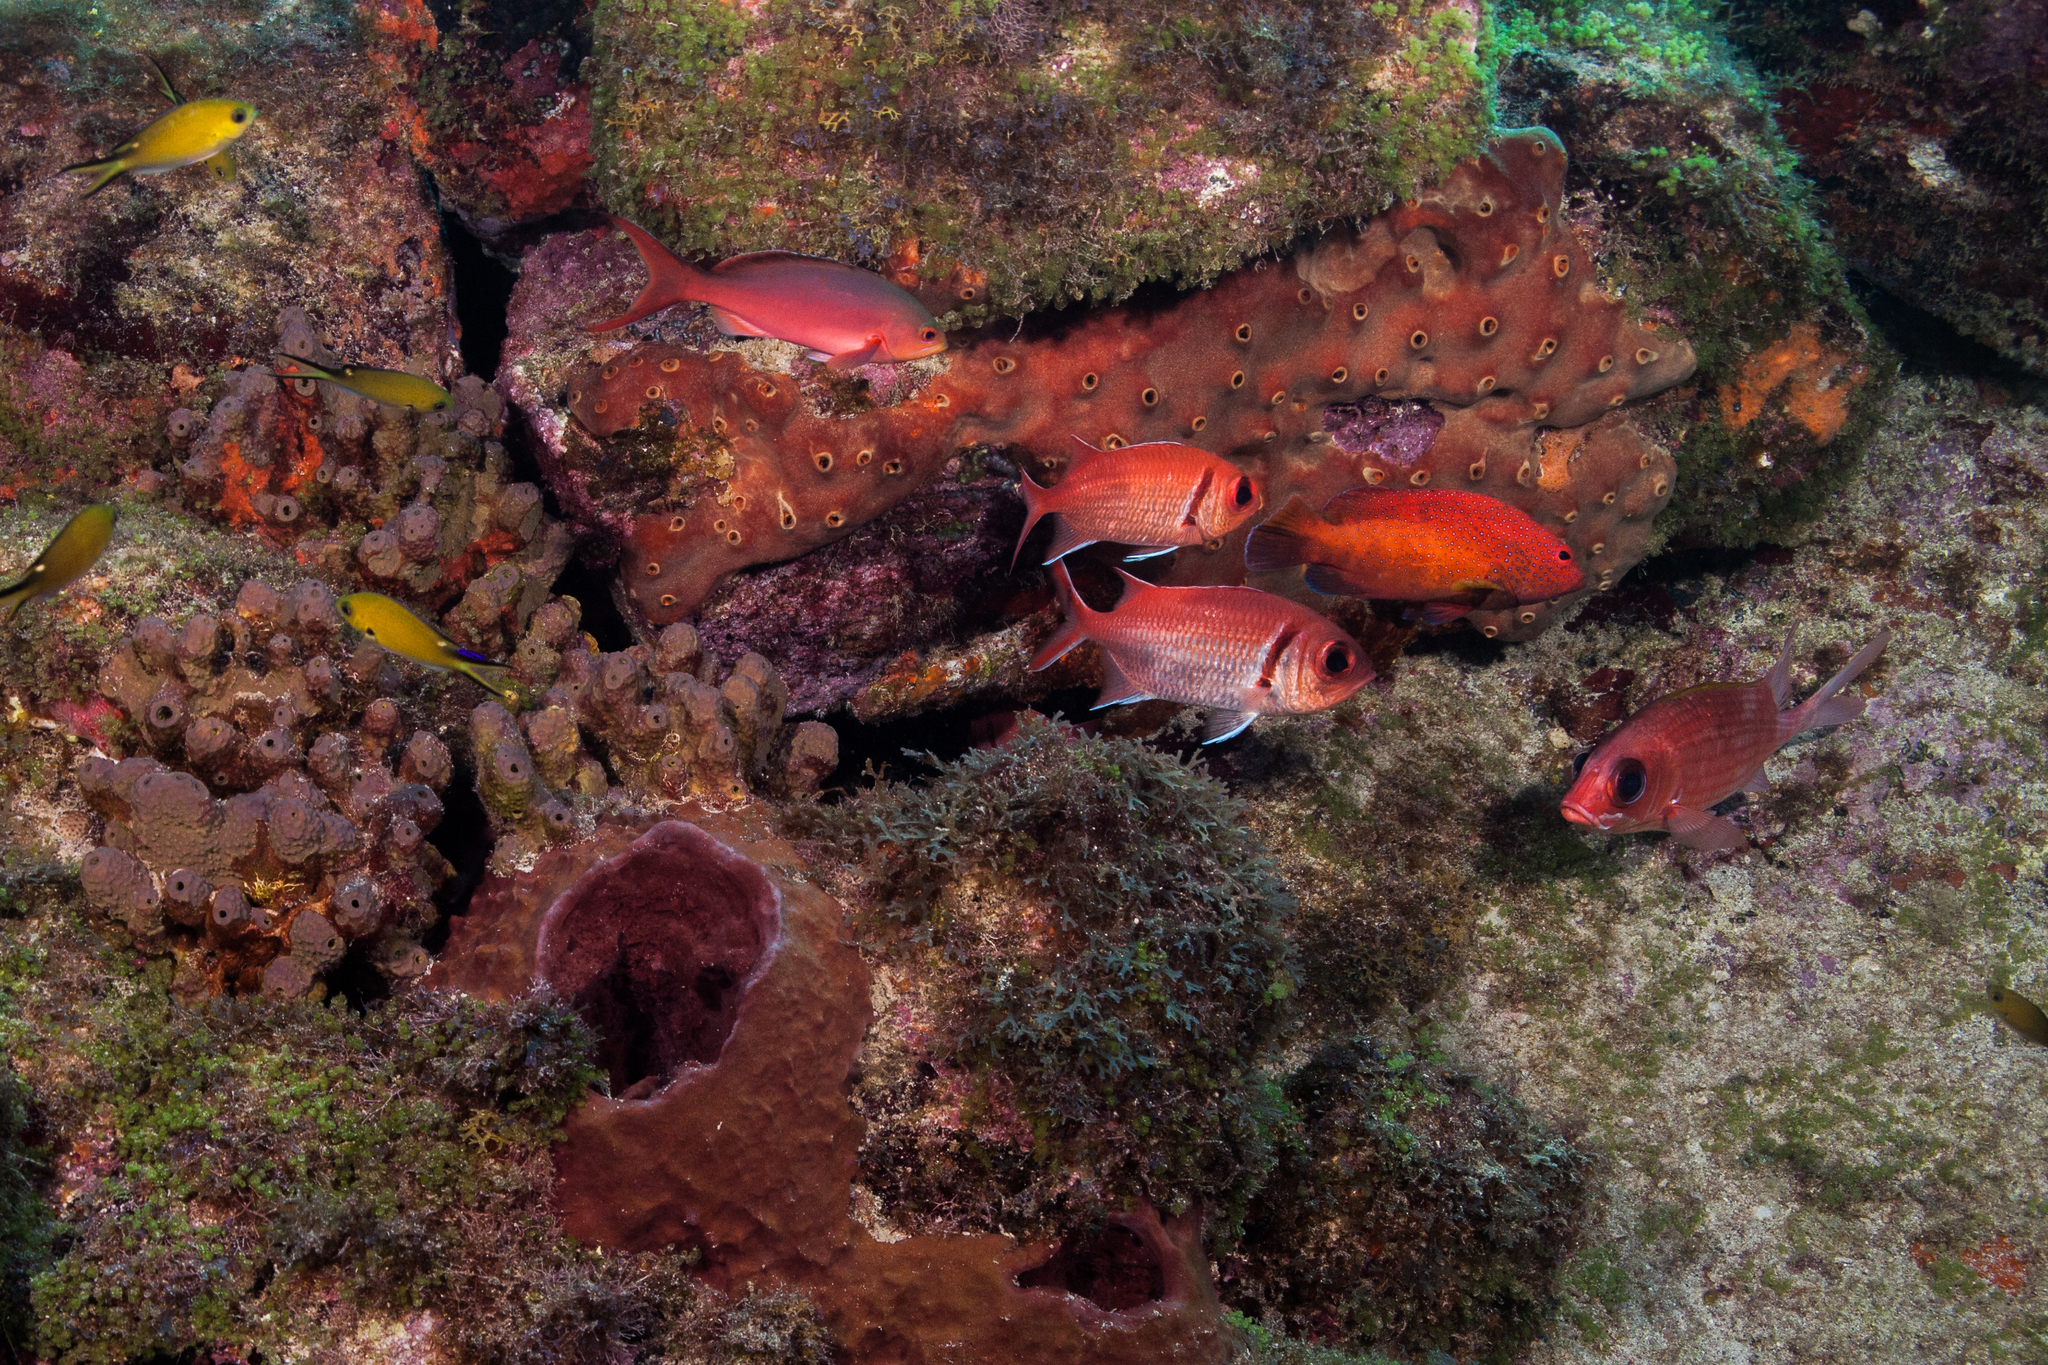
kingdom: Animalia
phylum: Chordata
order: Beryciformes
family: Holocentridae
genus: Myripristis
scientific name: Myripristis jacobus
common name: Blackbar soldierfish
